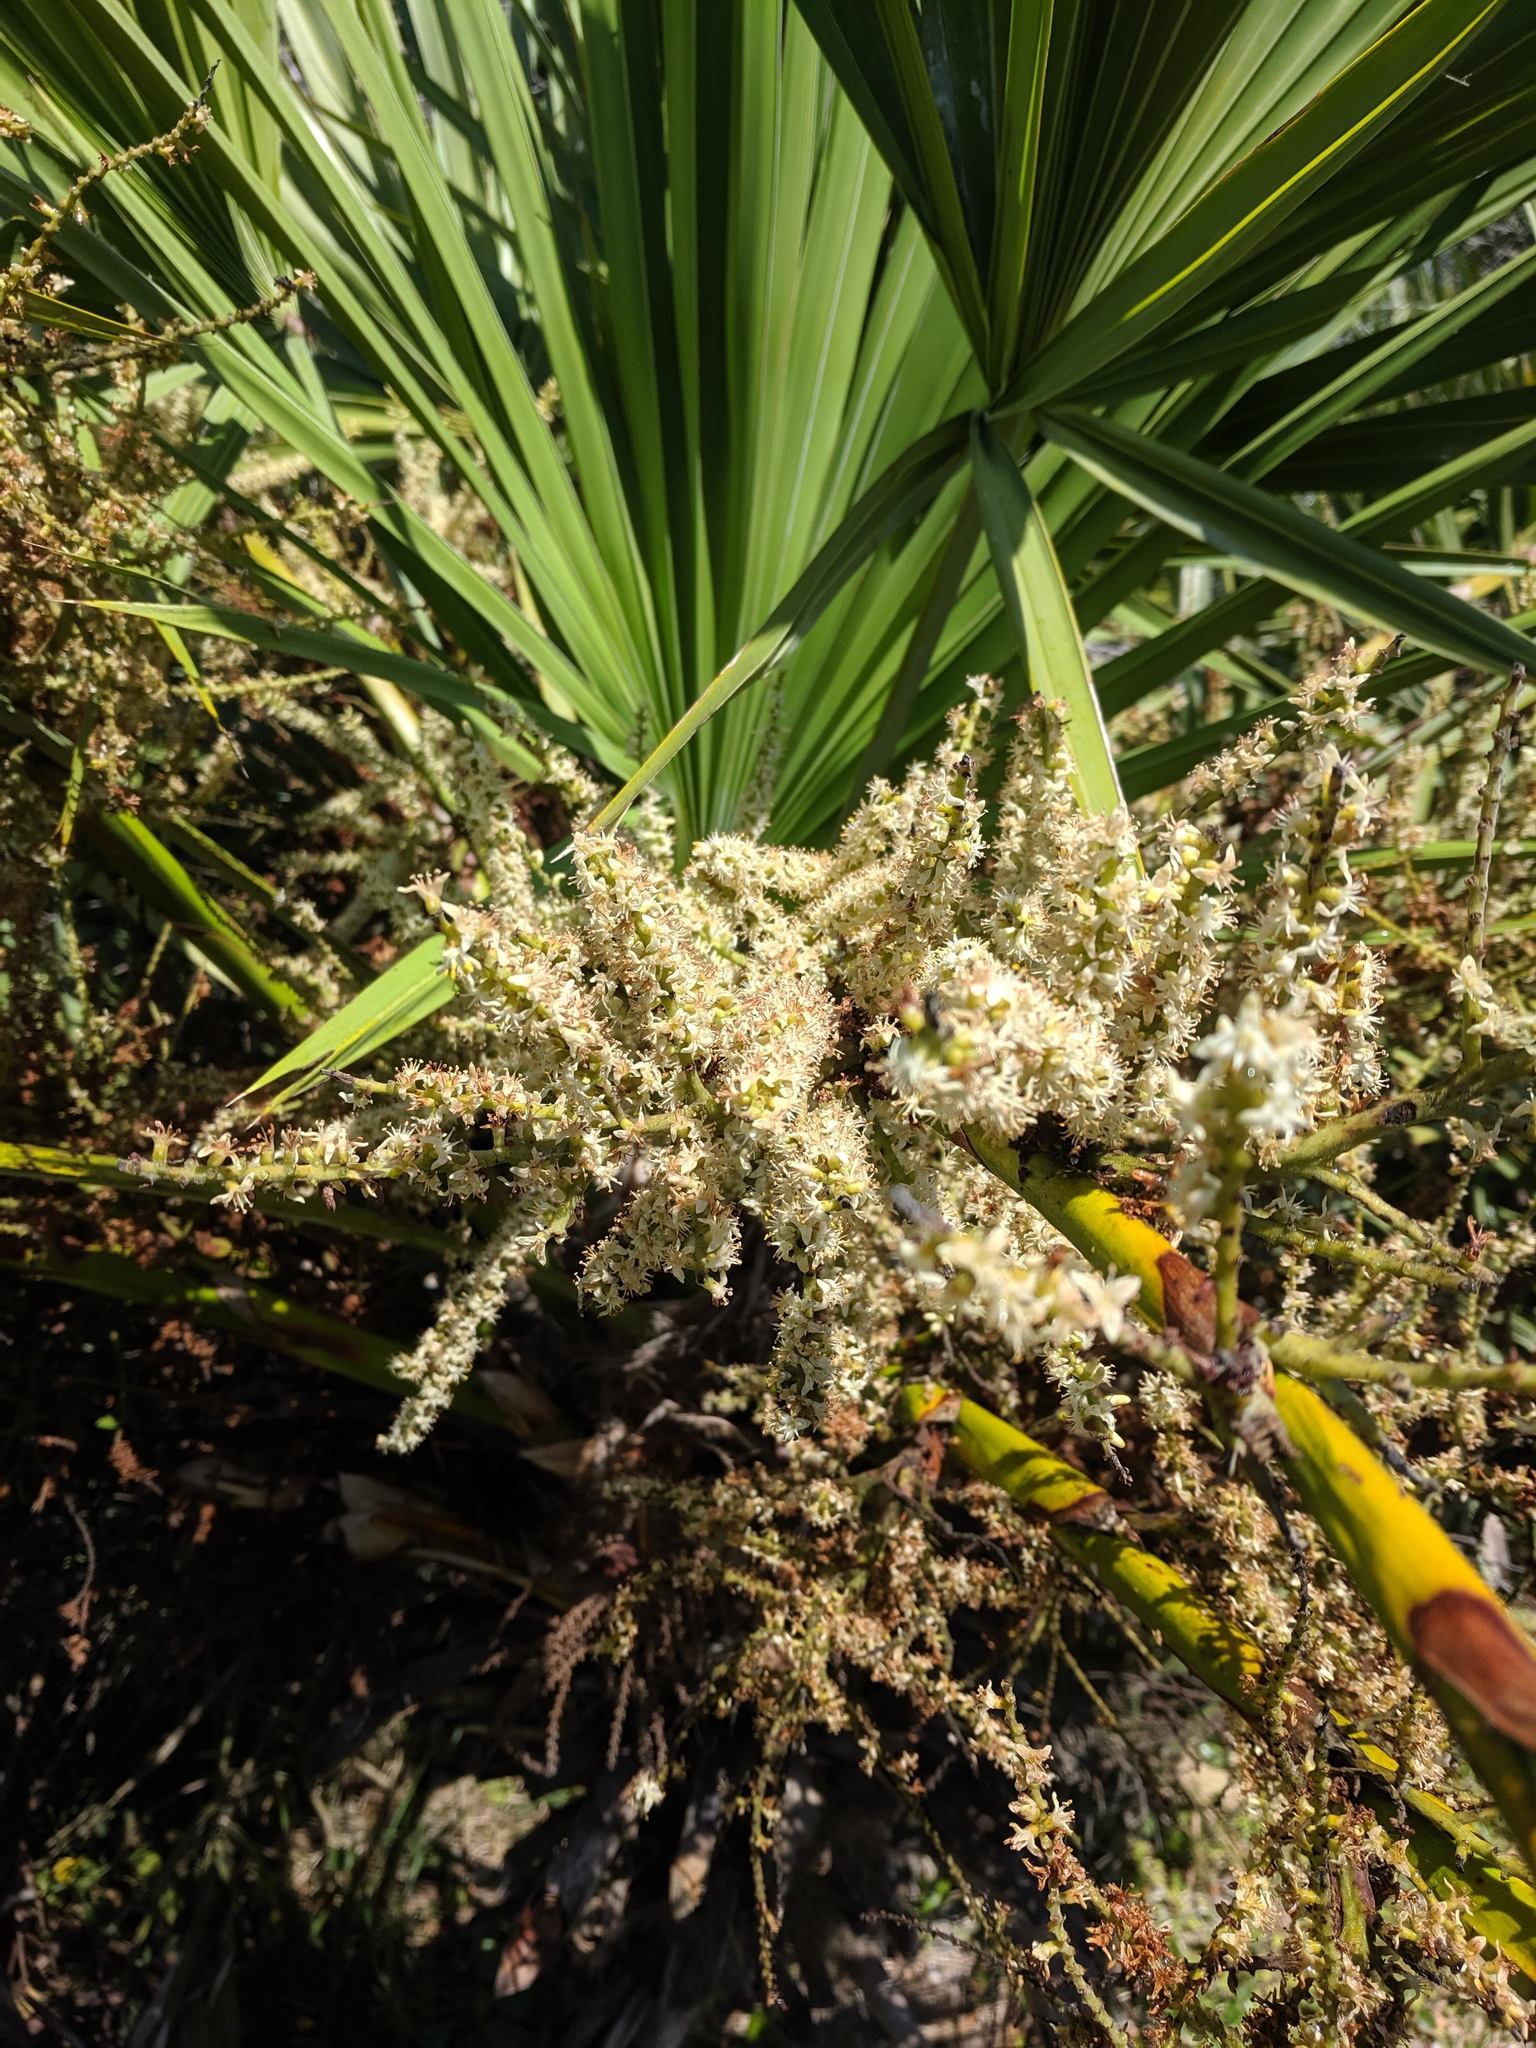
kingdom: Plantae
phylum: Tracheophyta
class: Liliopsida
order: Arecales
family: Arecaceae
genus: Serenoa
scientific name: Serenoa repens
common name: Saw-palmetto
